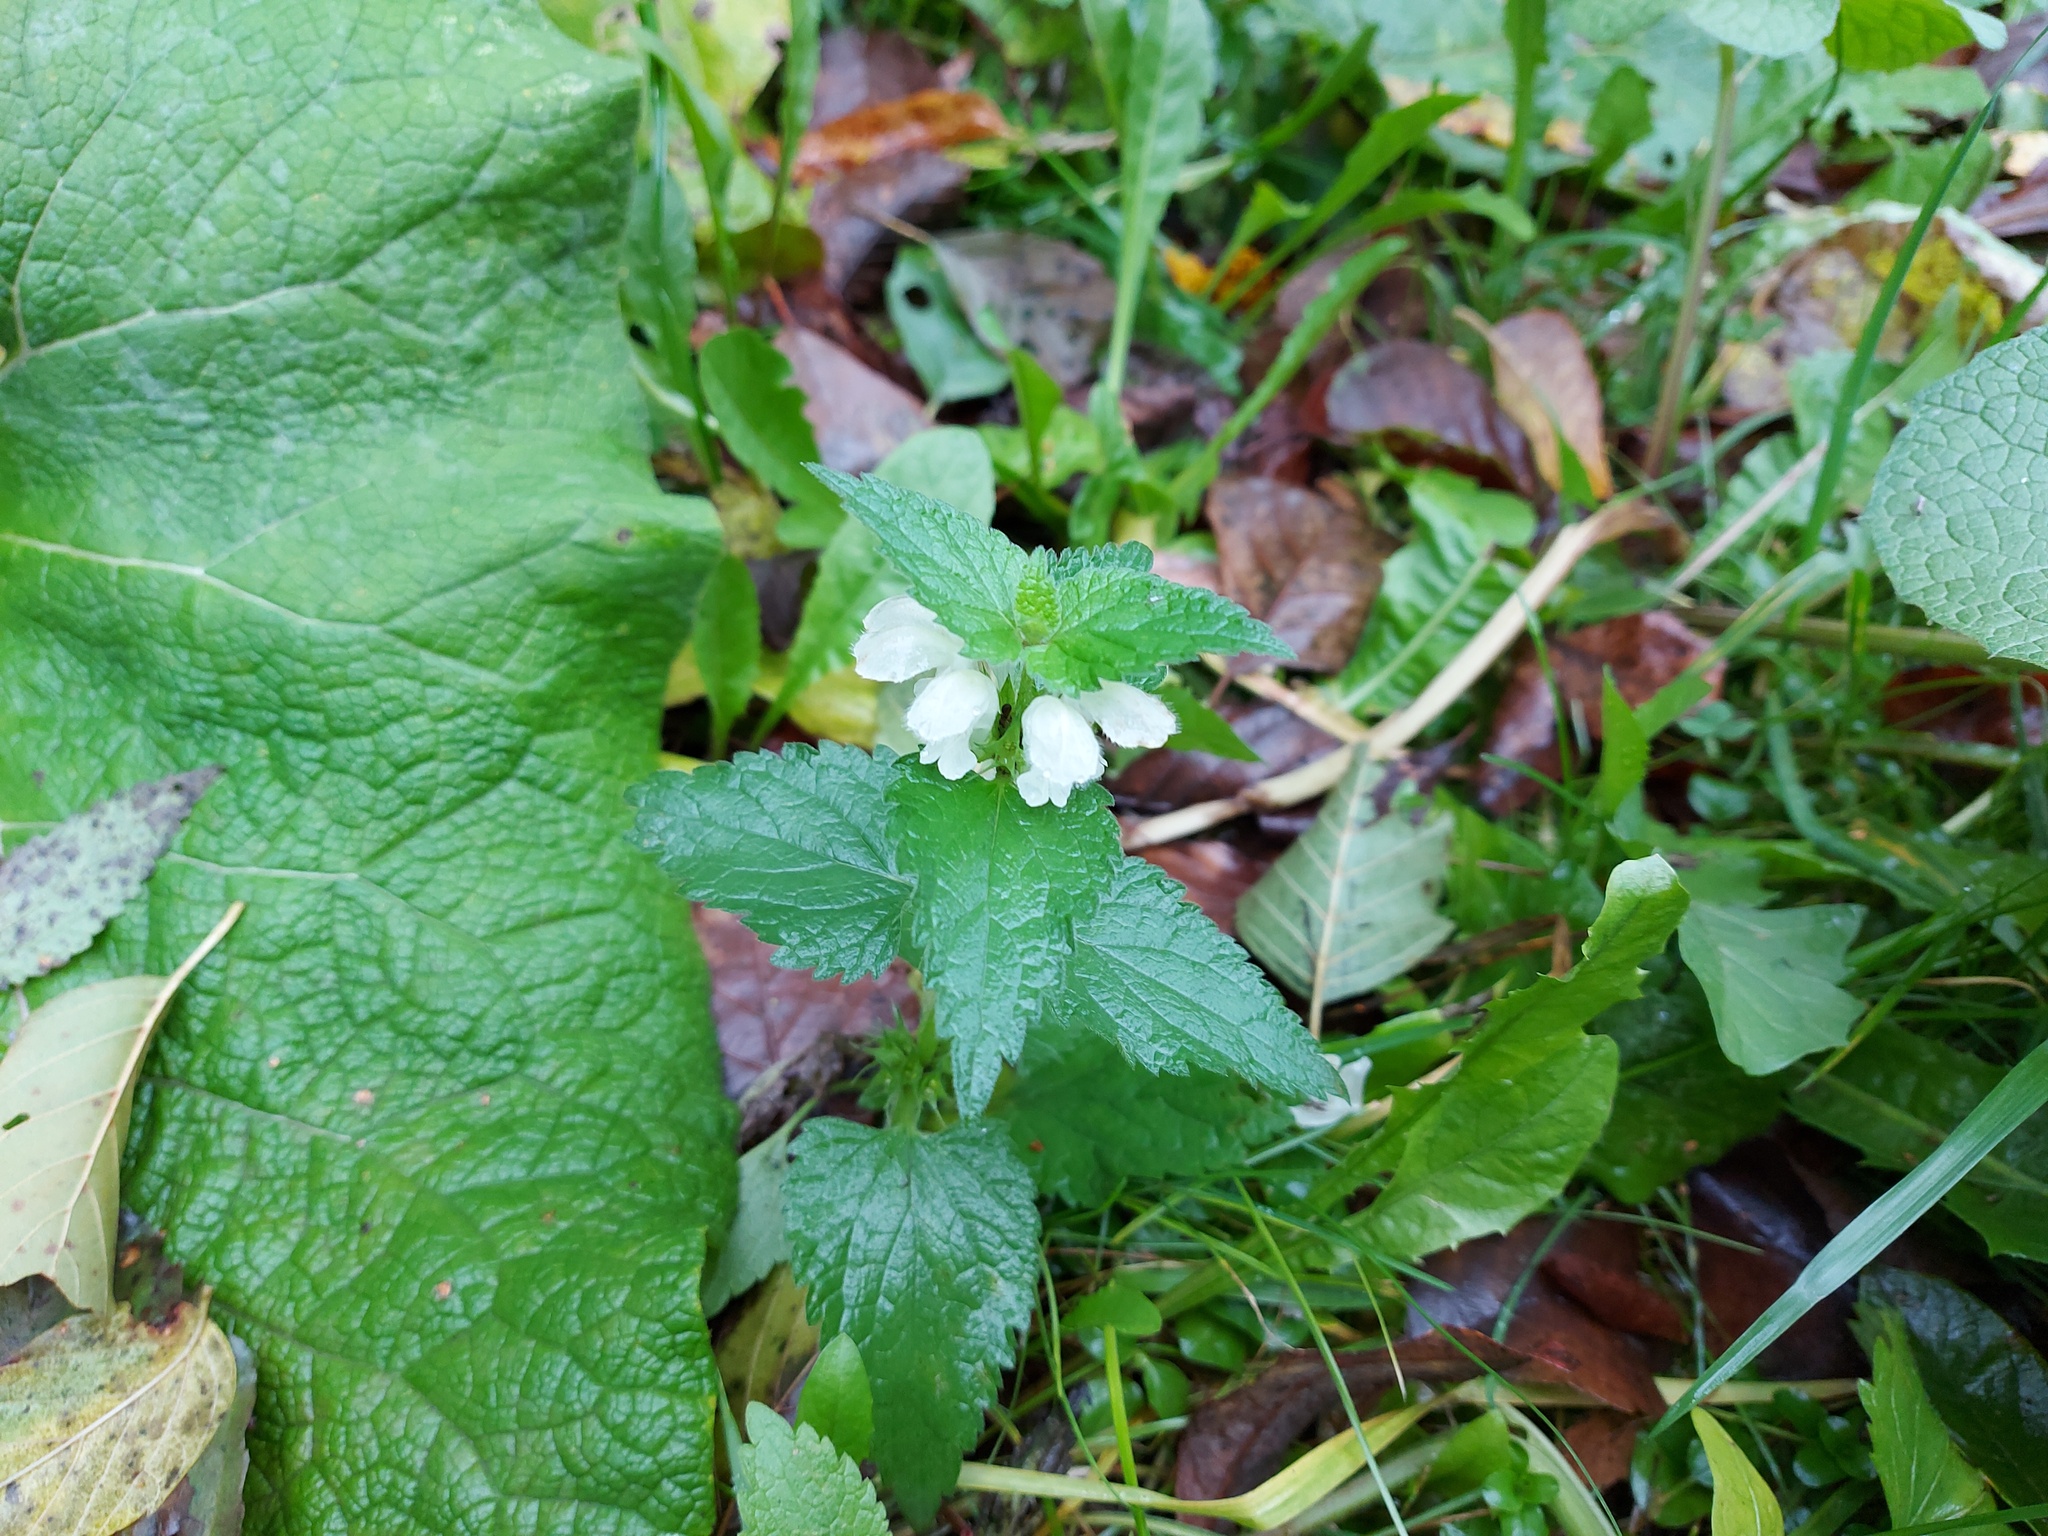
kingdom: Plantae
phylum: Tracheophyta
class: Magnoliopsida
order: Lamiales
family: Lamiaceae
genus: Lamium
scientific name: Lamium album
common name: White dead-nettle
